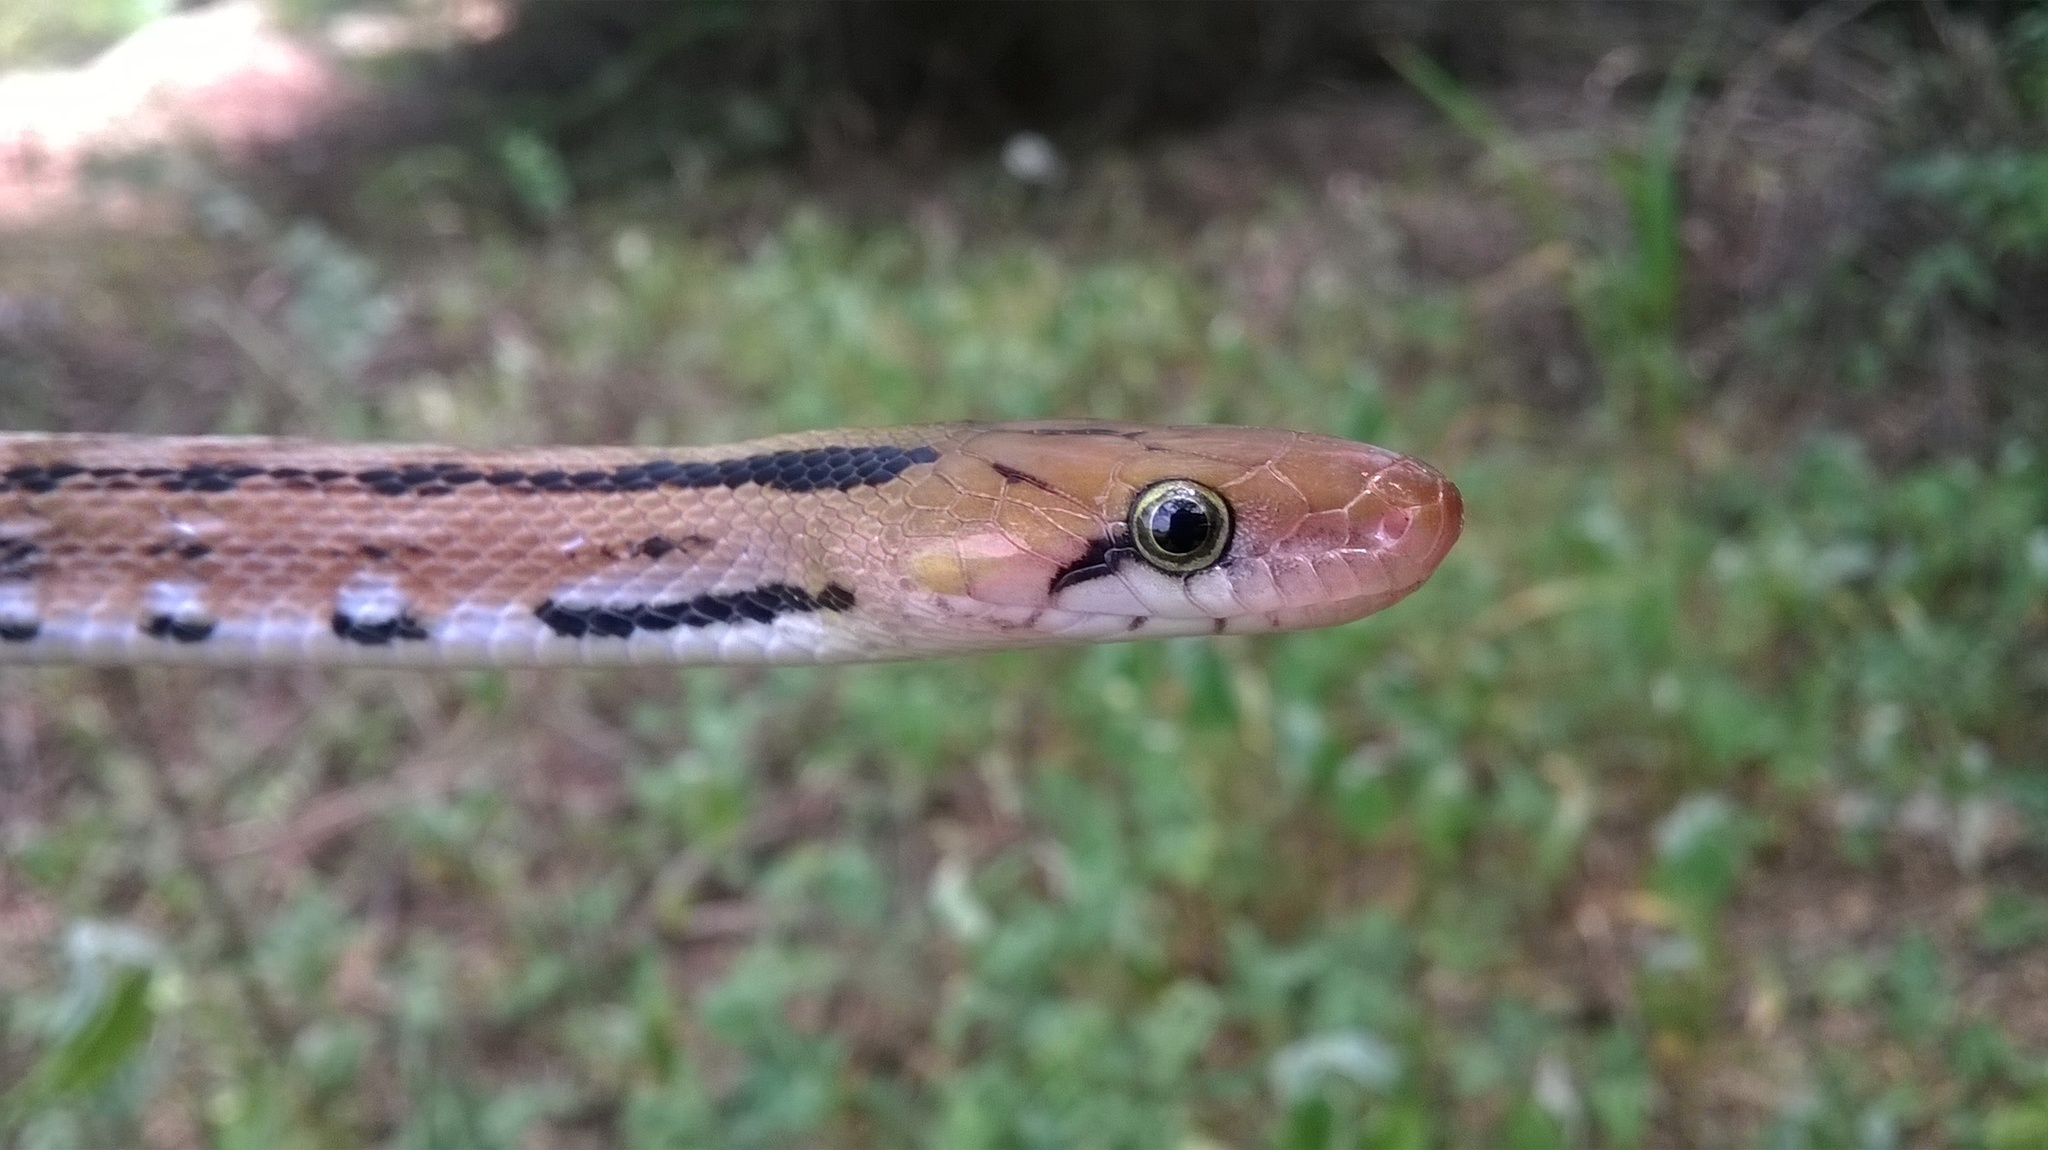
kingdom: Animalia
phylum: Chordata
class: Squamata
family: Colubridae
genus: Coelognathus
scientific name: Coelognathus helena
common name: Trinket snake
